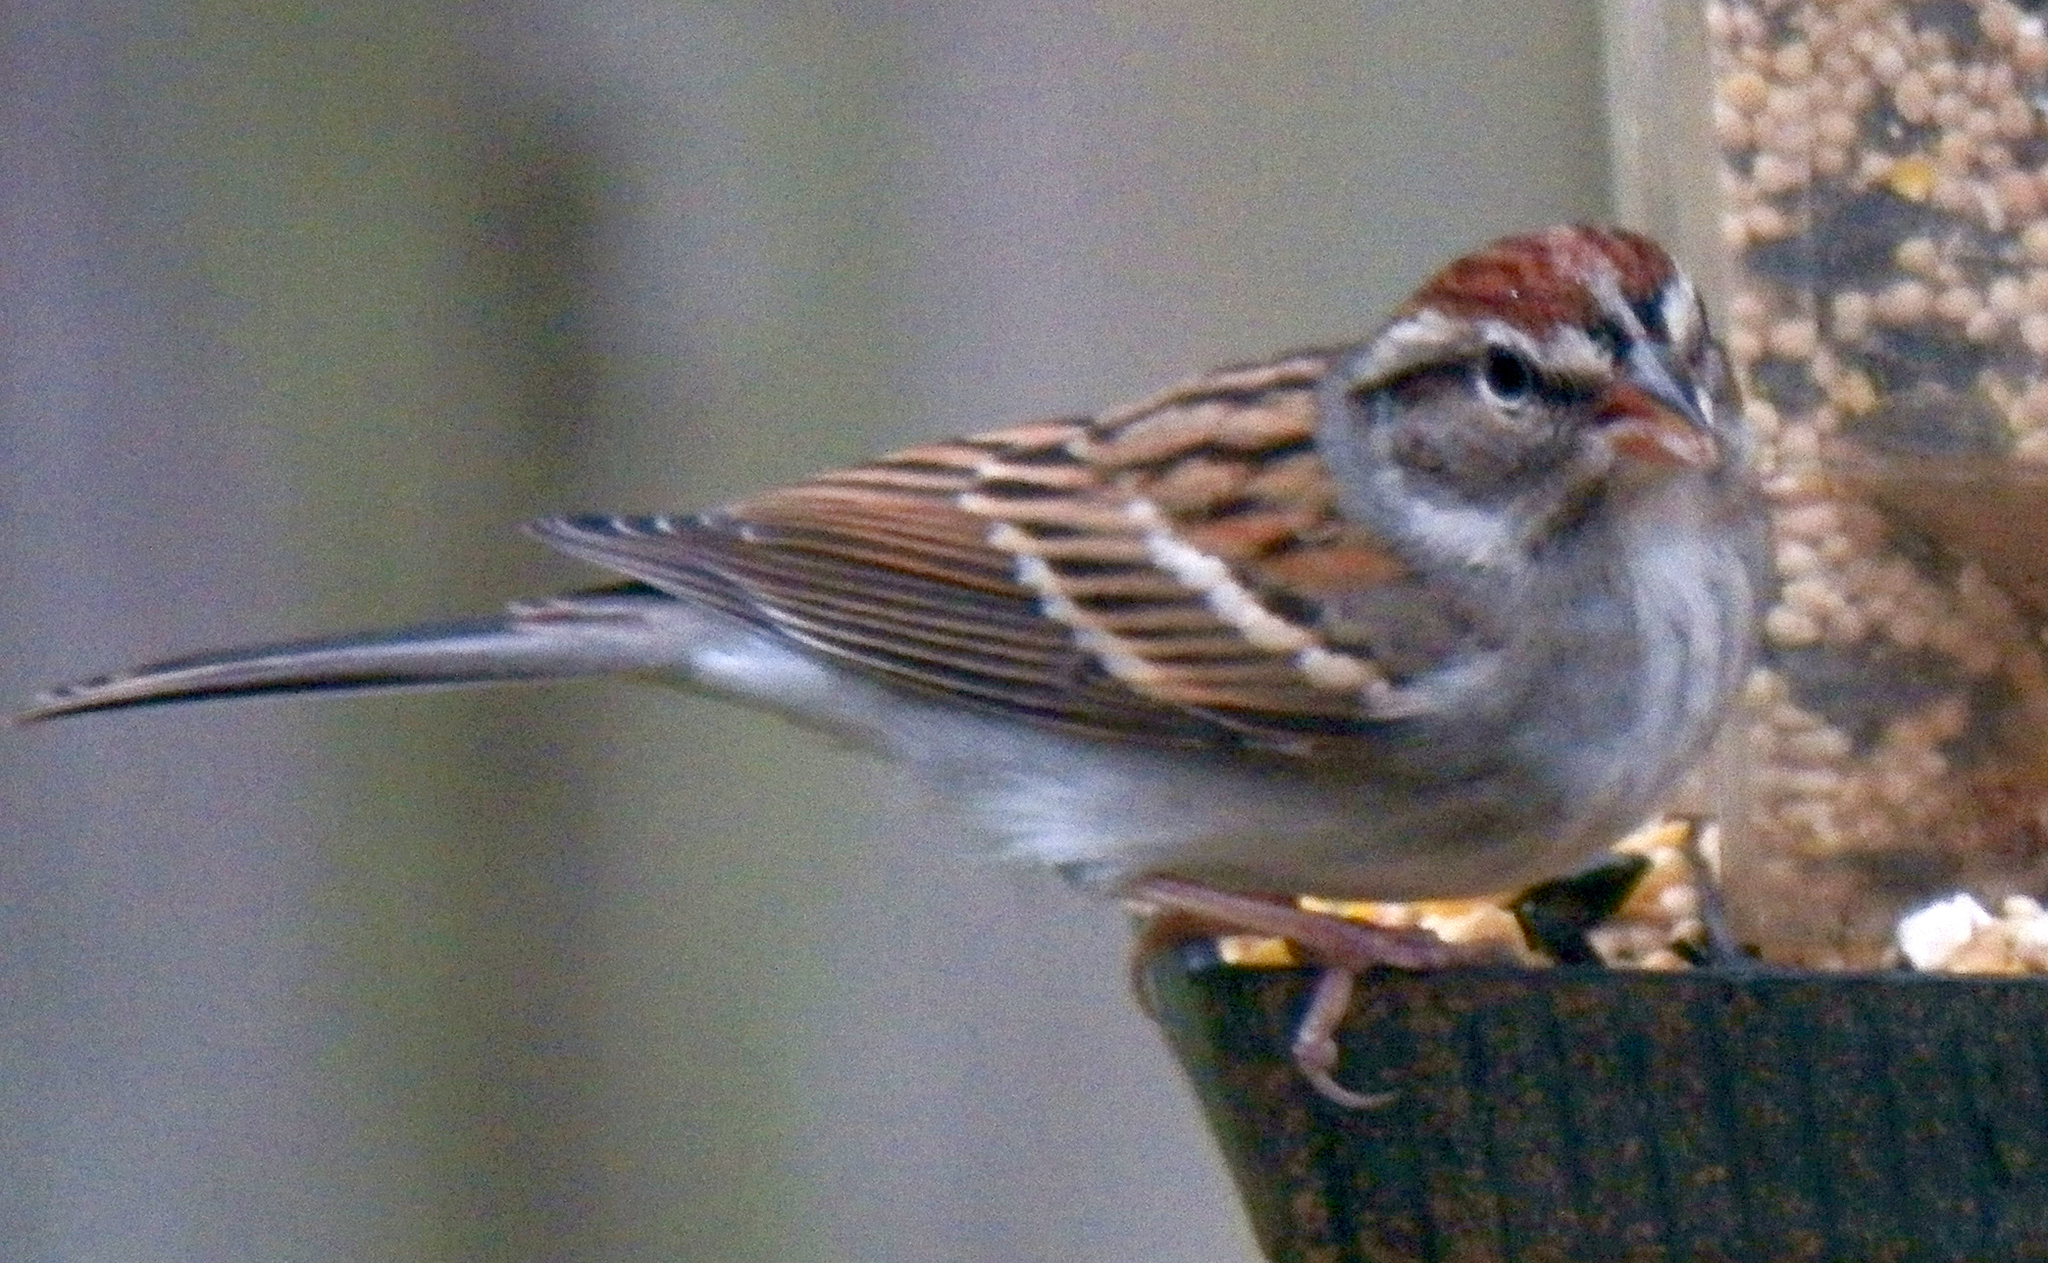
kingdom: Animalia
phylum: Chordata
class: Aves
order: Passeriformes
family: Passerellidae
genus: Spizella
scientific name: Spizella passerina
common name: Chipping sparrow
